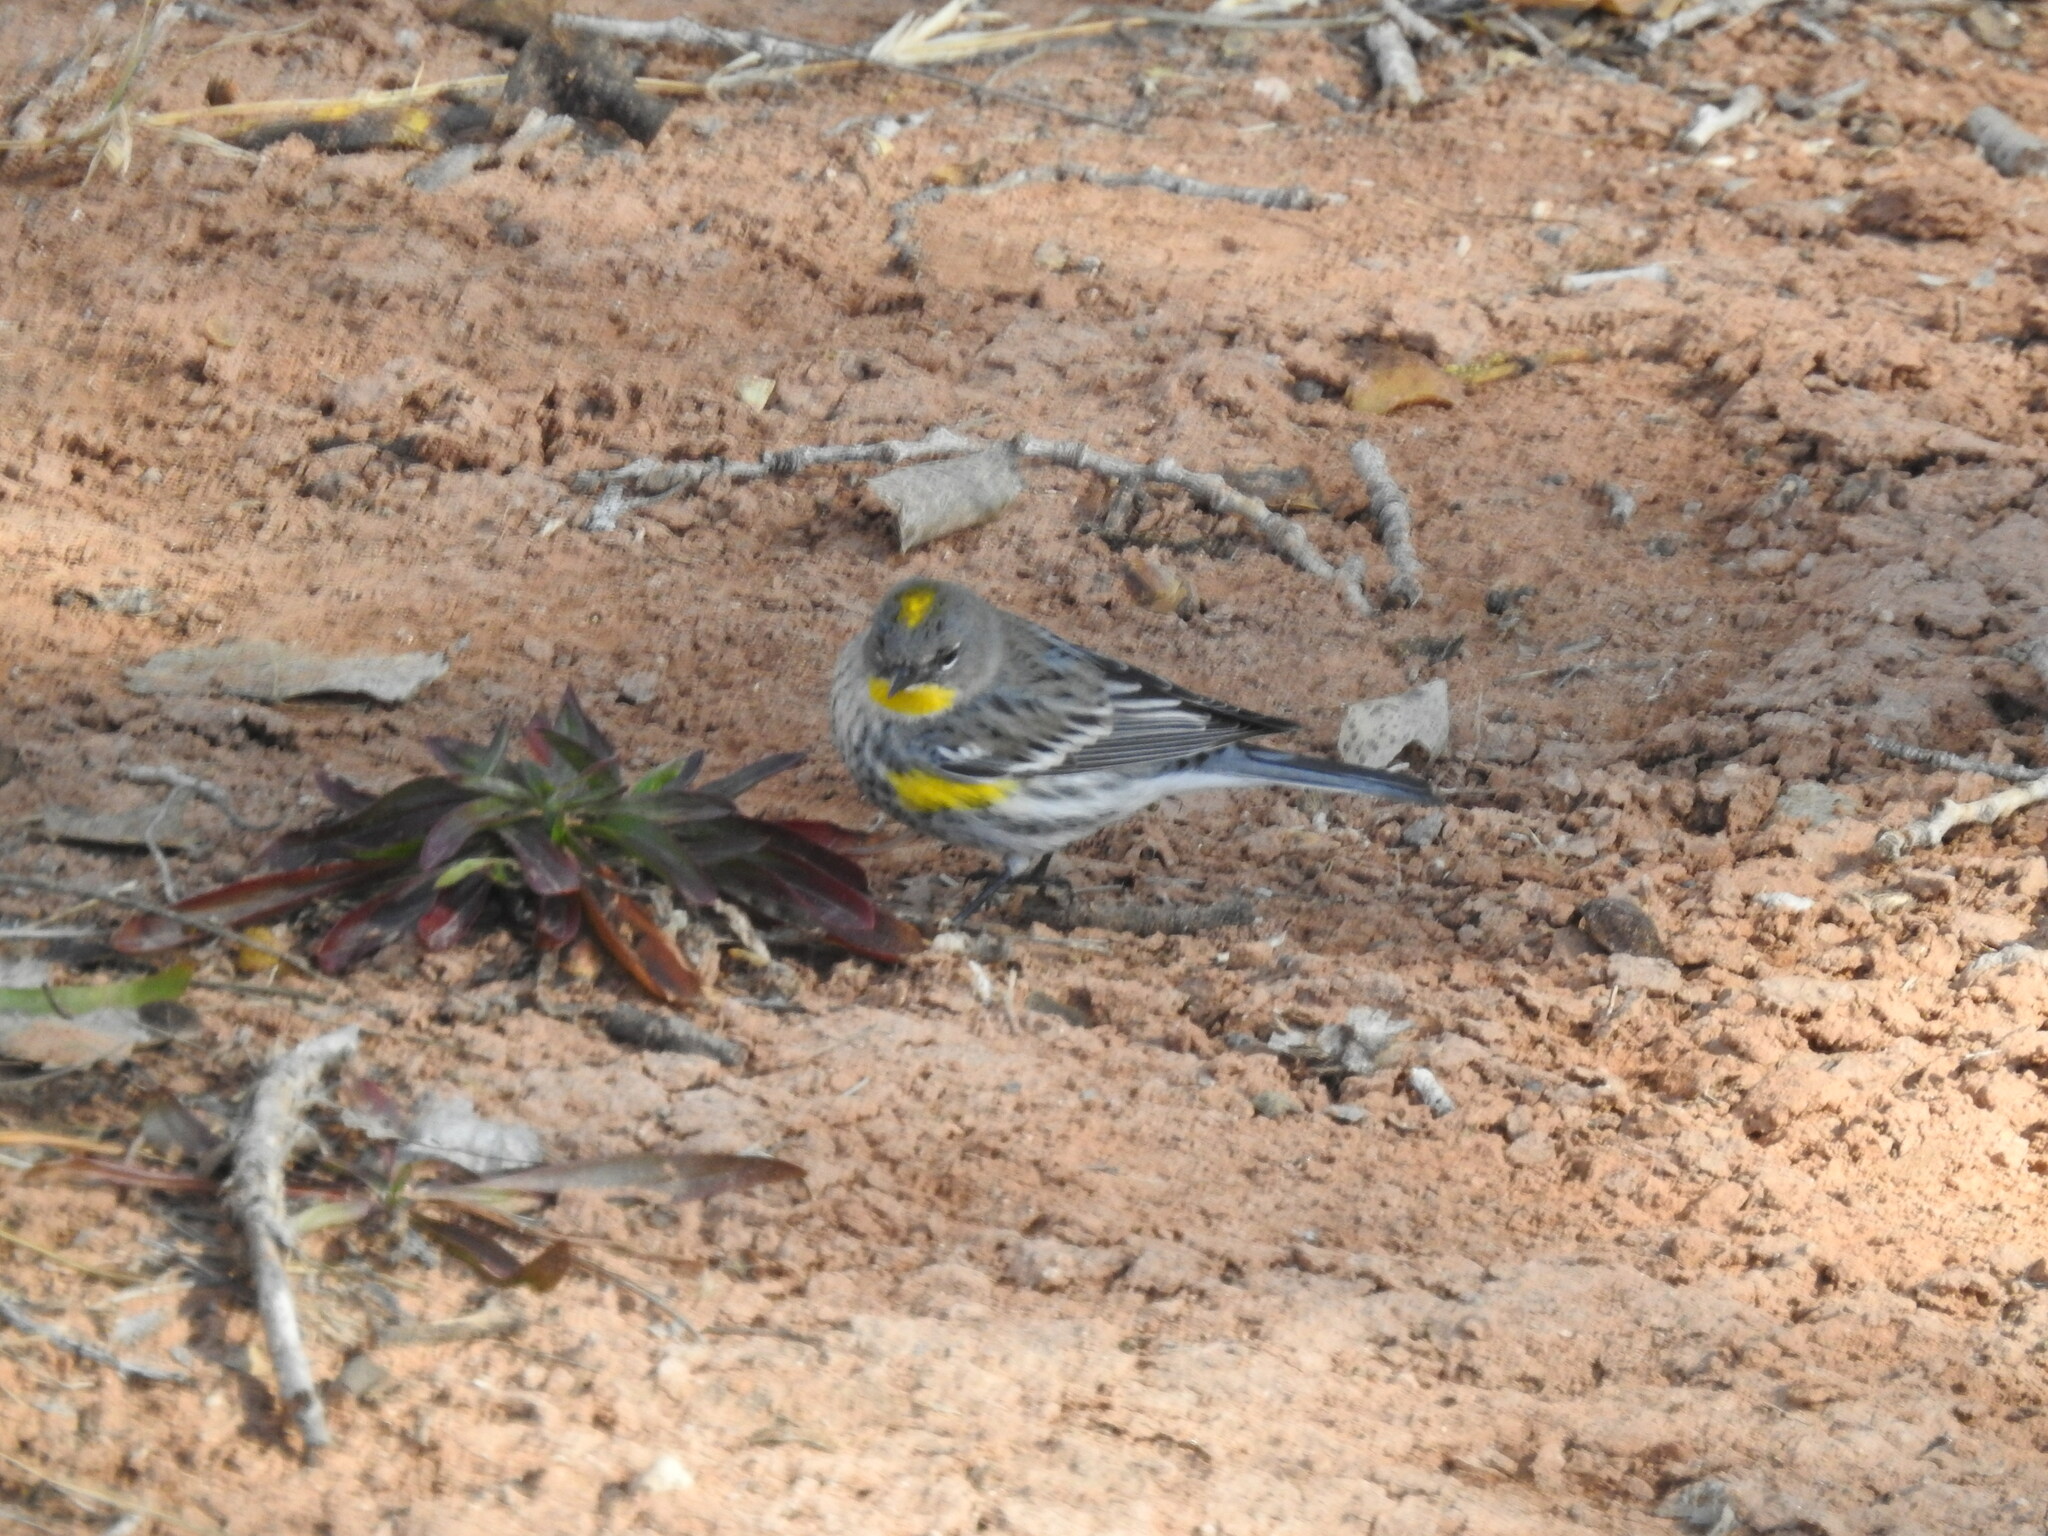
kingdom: Animalia
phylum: Chordata
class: Aves
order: Passeriformes
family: Parulidae
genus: Setophaga
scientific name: Setophaga coronata
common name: Myrtle warbler
